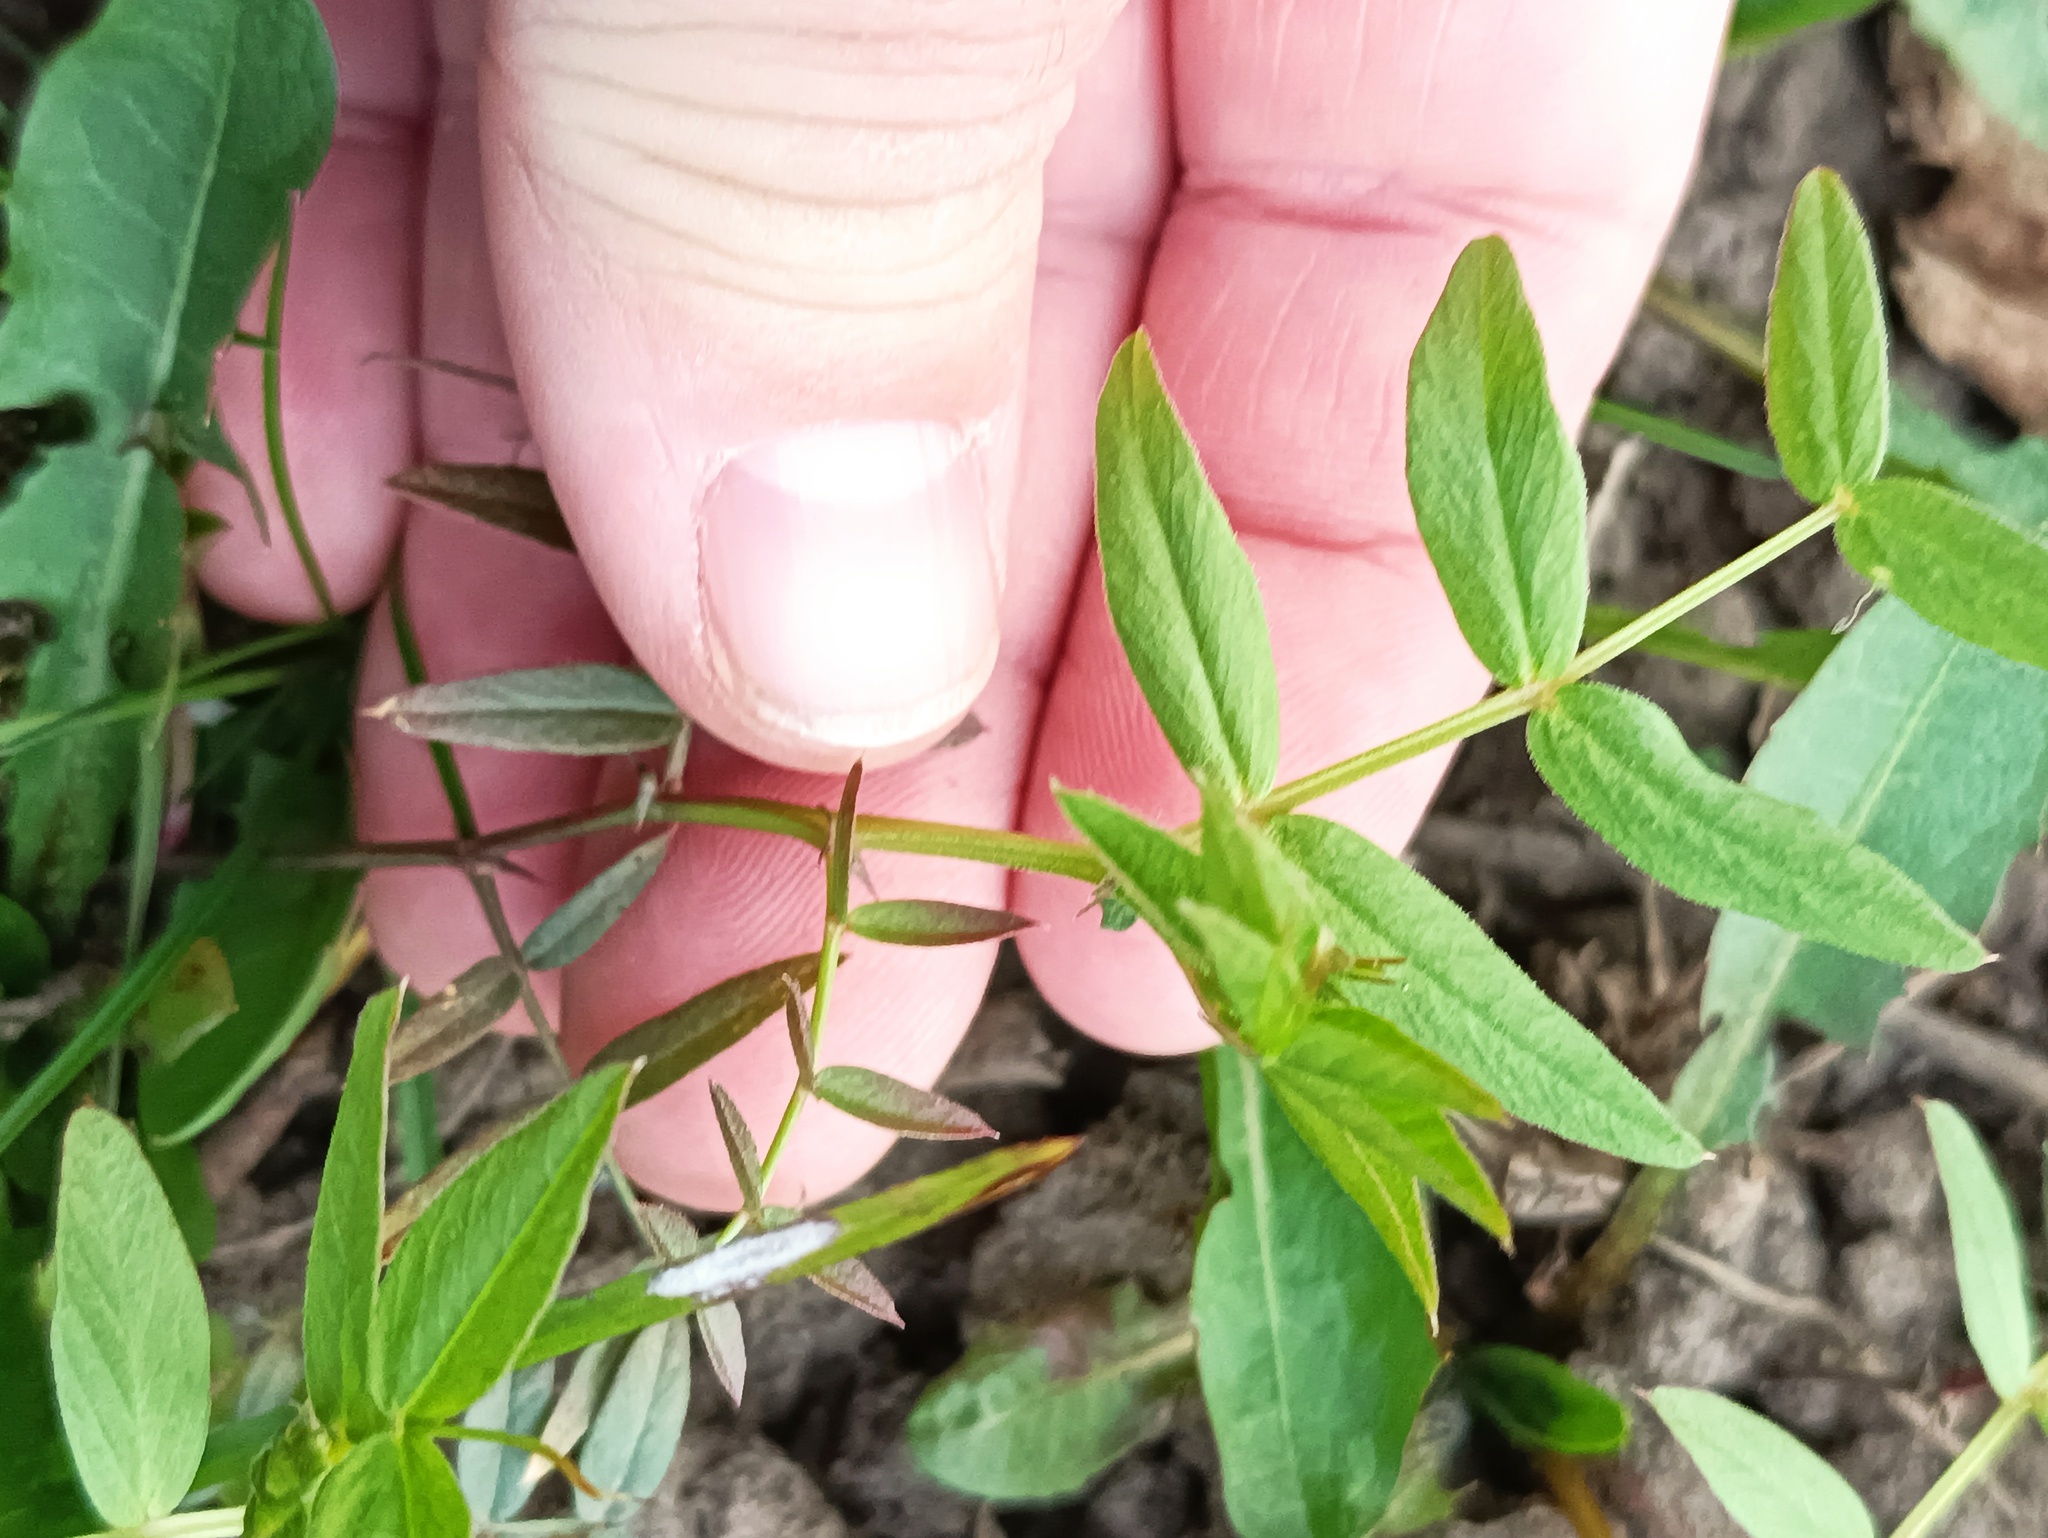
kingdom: Plantae
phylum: Tracheophyta
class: Magnoliopsida
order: Fabales
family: Fabaceae
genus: Vicia
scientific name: Vicia sepium
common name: Bush vetch
